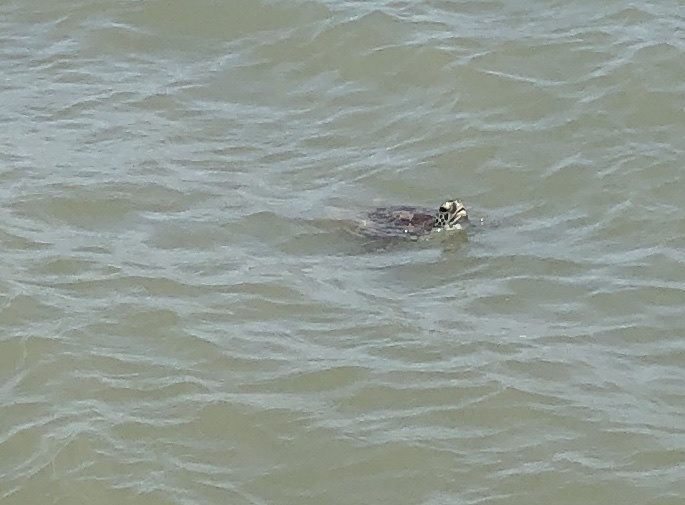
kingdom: Animalia
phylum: Chordata
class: Testudines
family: Cheloniidae
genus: Chelonia
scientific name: Chelonia mydas
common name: Green turtle
